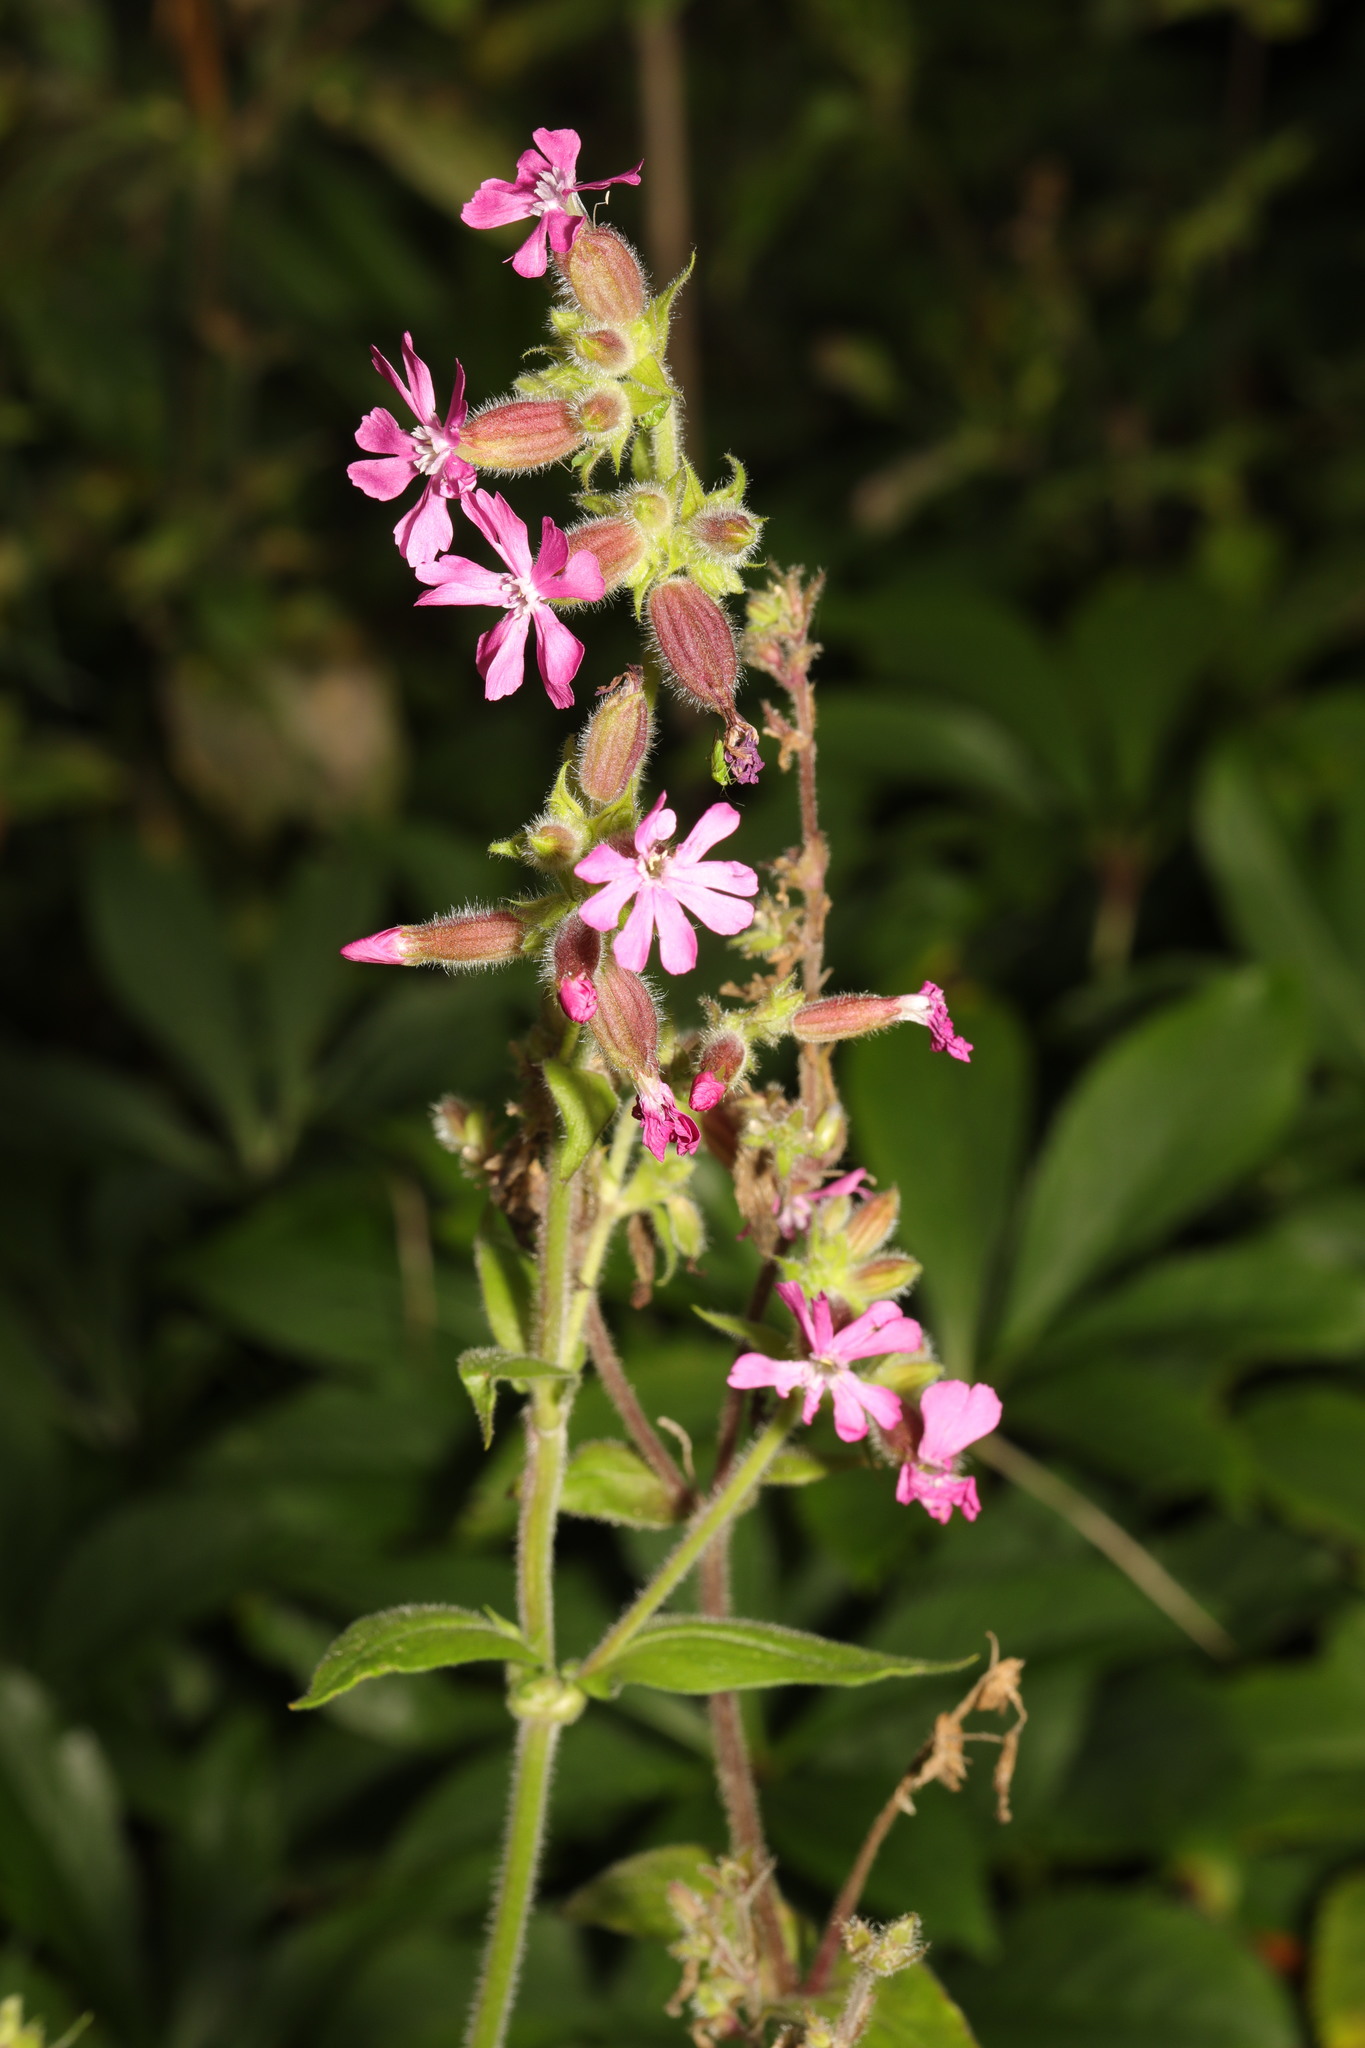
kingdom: Plantae
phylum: Tracheophyta
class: Magnoliopsida
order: Caryophyllales
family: Caryophyllaceae
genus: Silene
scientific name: Silene dioica
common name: Red campion
